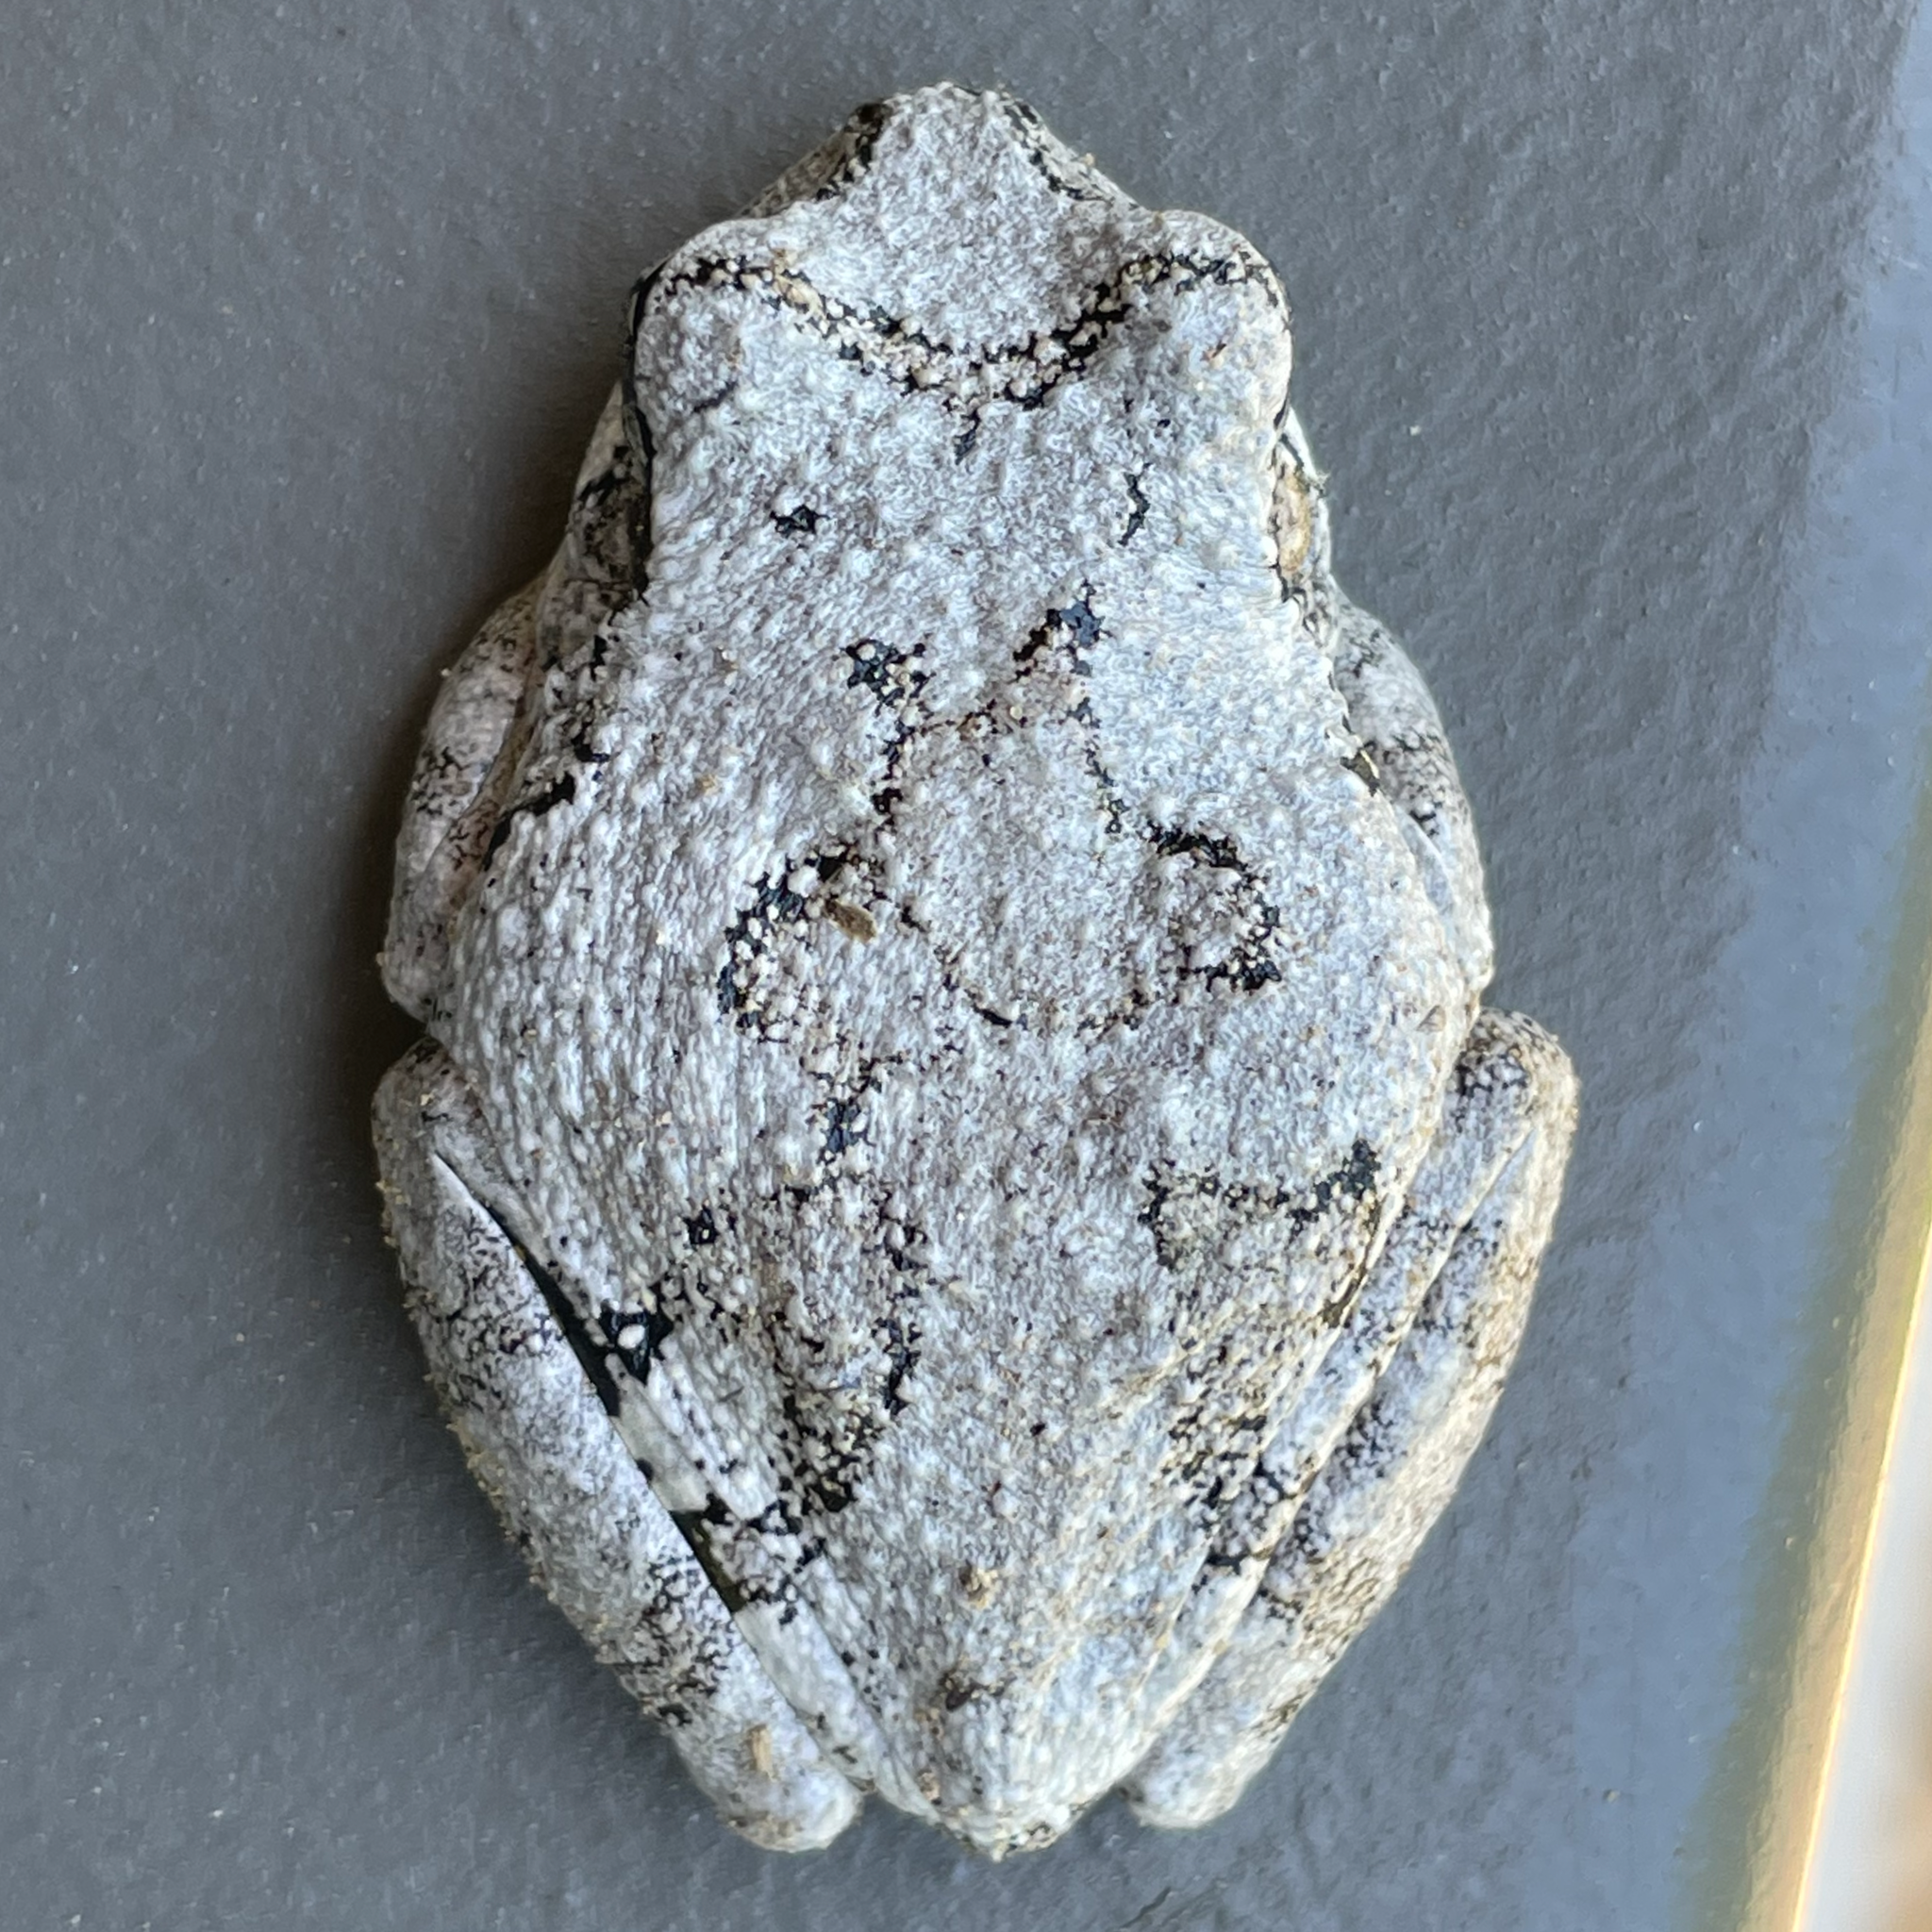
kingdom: Animalia
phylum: Chordata
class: Amphibia
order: Anura
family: Hylidae
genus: Dryophytes
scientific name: Dryophytes chrysoscelis
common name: Cope's gray treefrog
